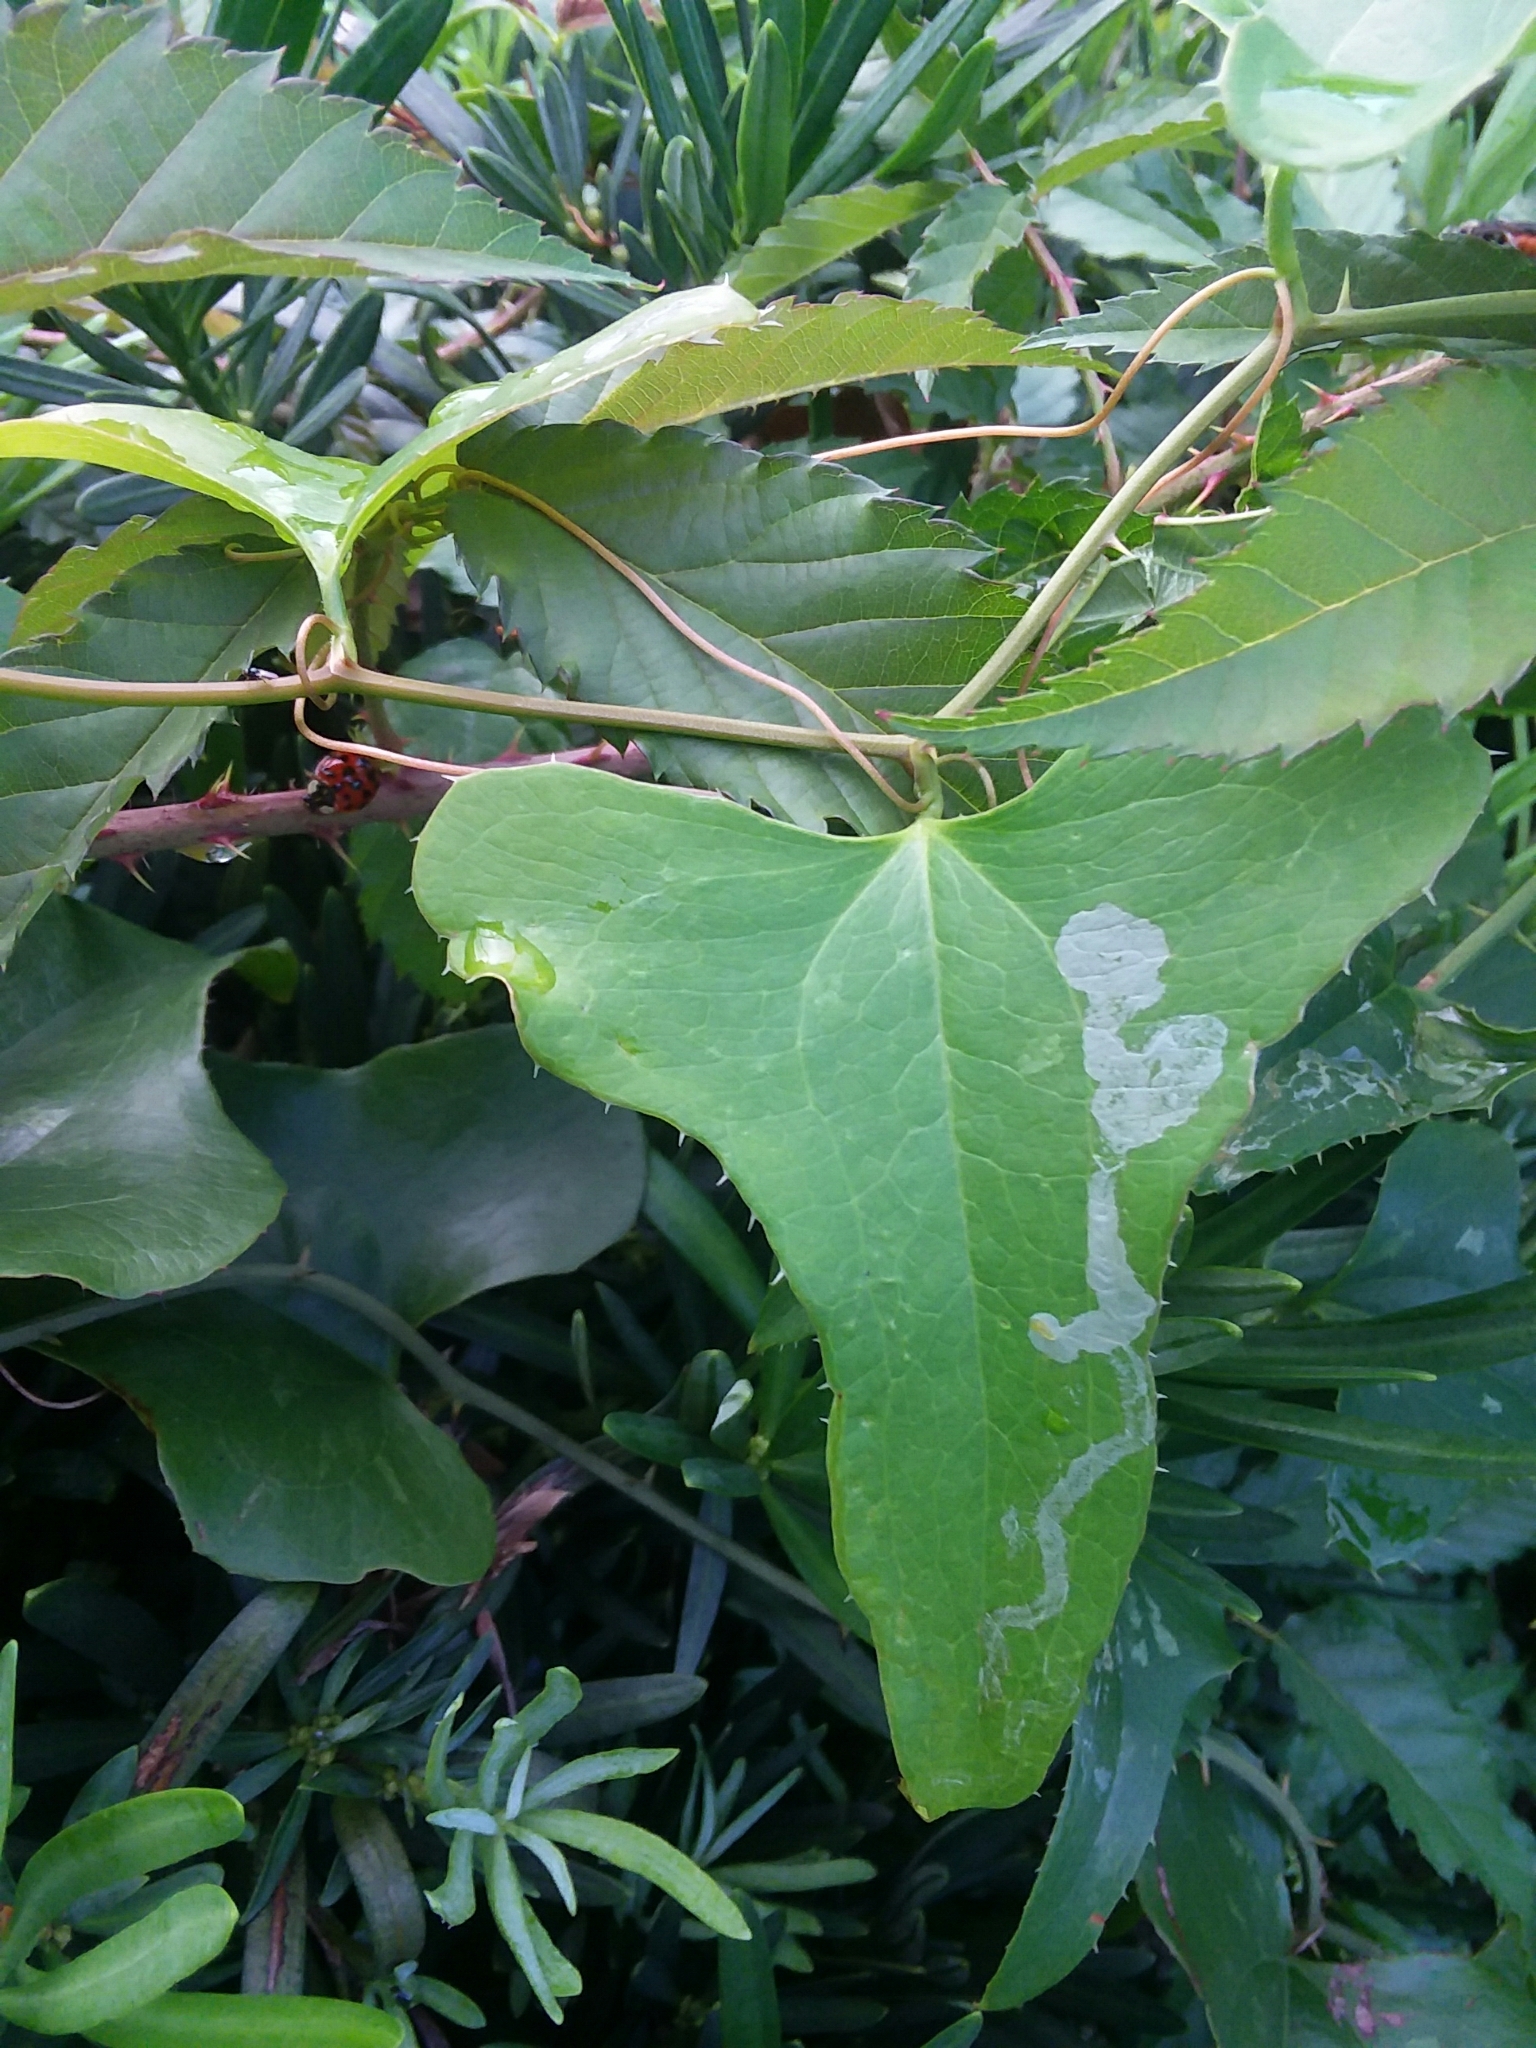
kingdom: Plantae
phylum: Tracheophyta
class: Liliopsida
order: Liliales
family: Smilacaceae
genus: Smilax
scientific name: Smilax bona-nox
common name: Catbrier
